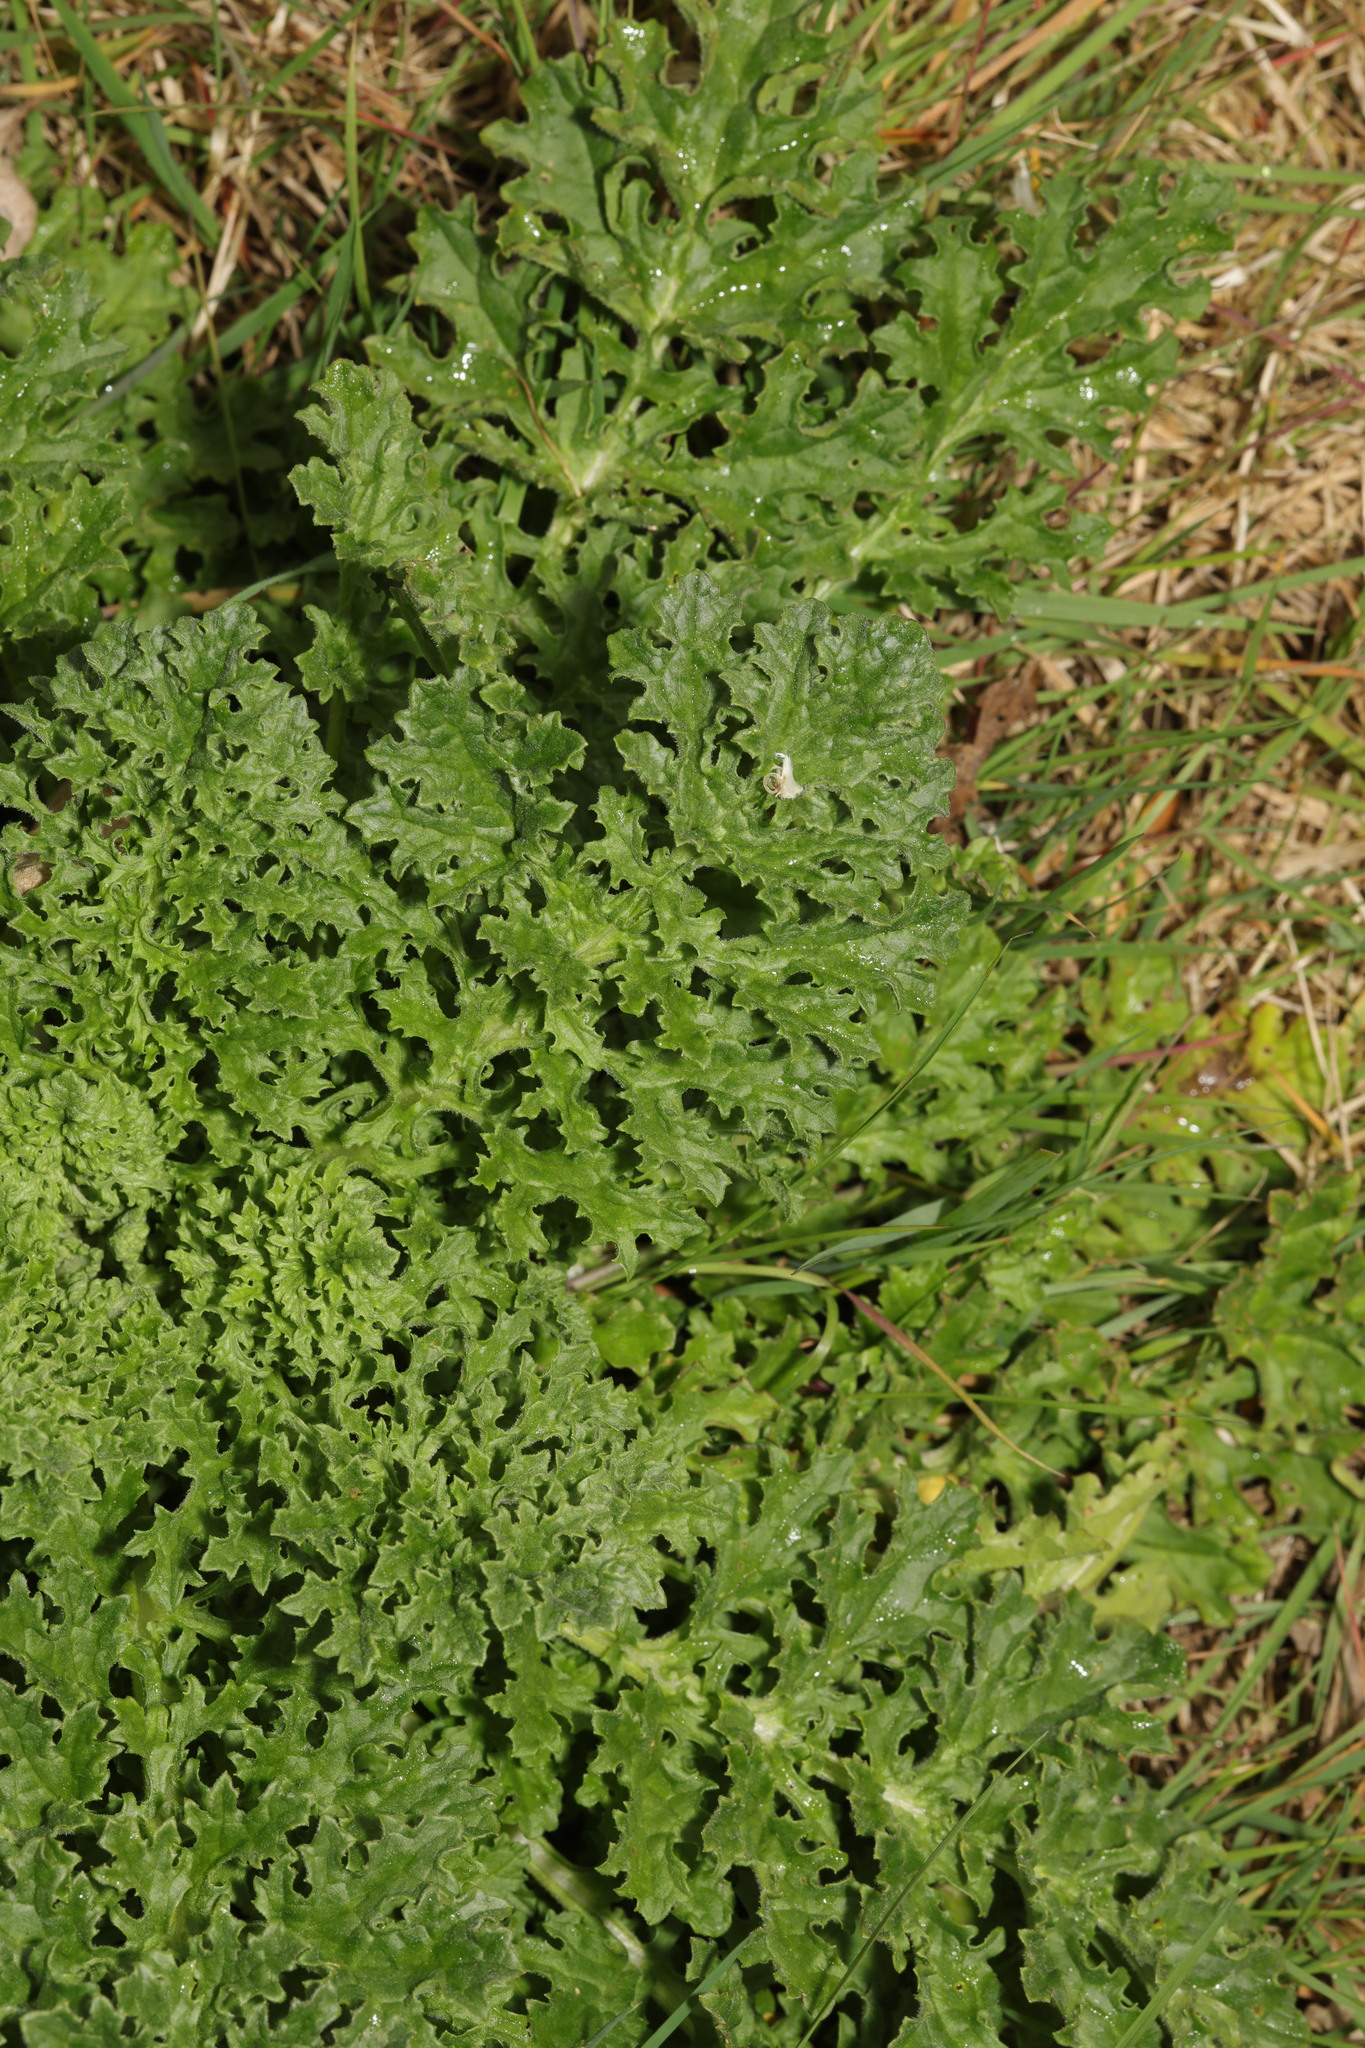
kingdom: Plantae
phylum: Tracheophyta
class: Magnoliopsida
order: Asterales
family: Asteraceae
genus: Jacobaea
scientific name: Jacobaea vulgaris
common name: Stinking willie
